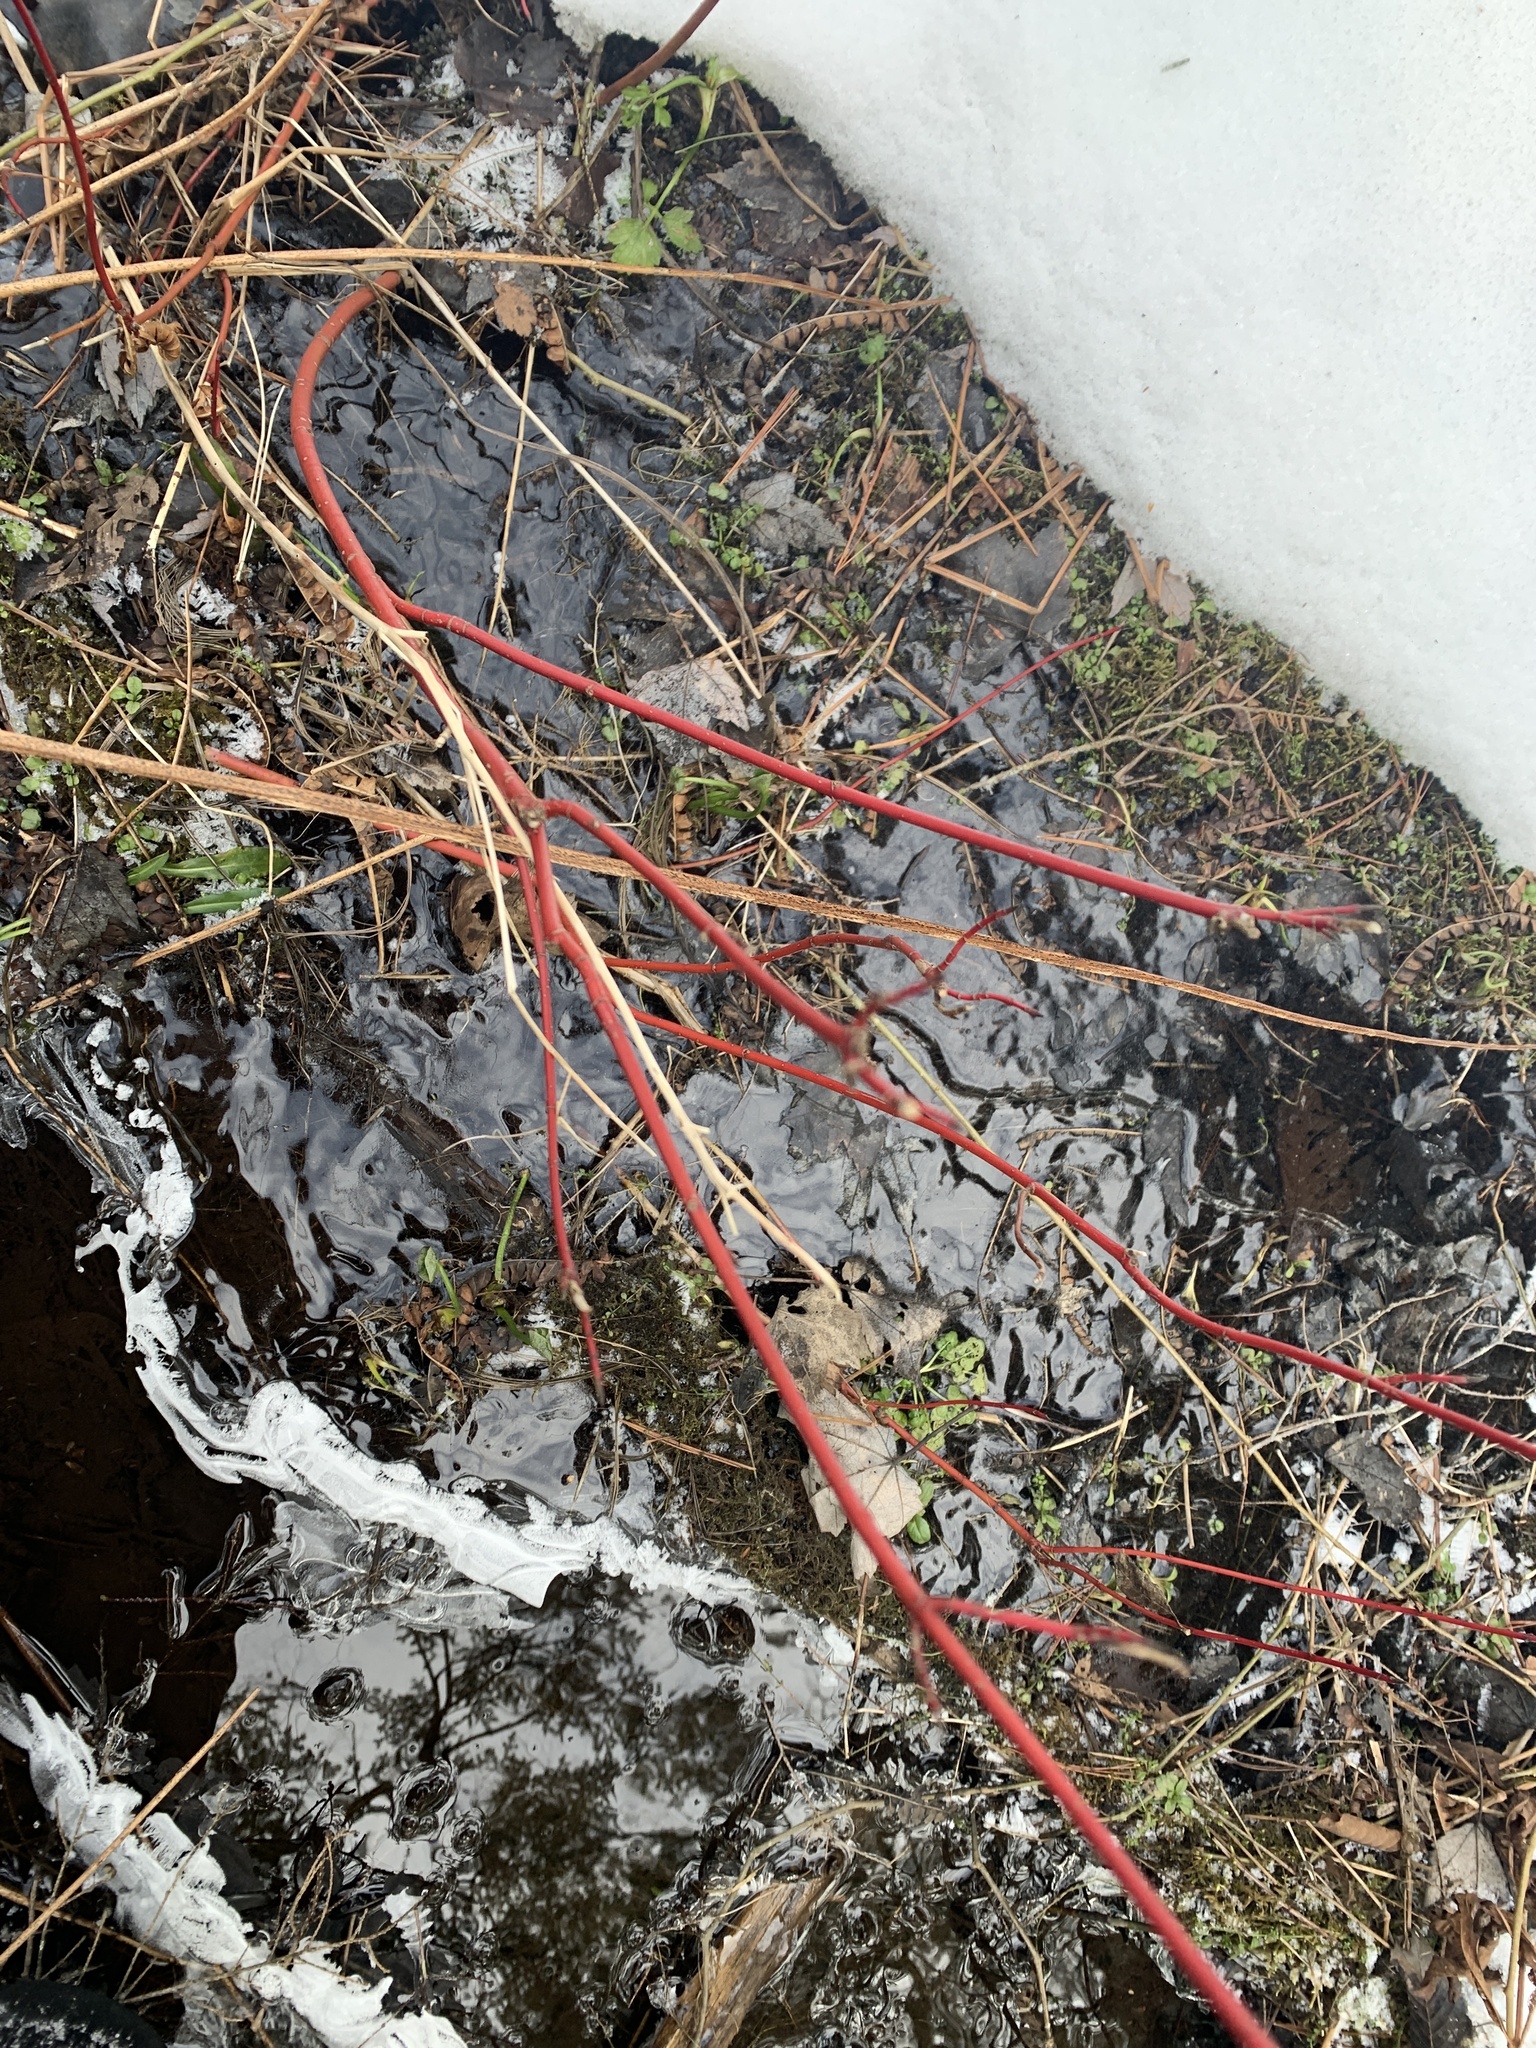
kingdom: Plantae
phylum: Tracheophyta
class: Magnoliopsida
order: Cornales
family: Cornaceae
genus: Cornus
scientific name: Cornus sericea
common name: Red-osier dogwood
